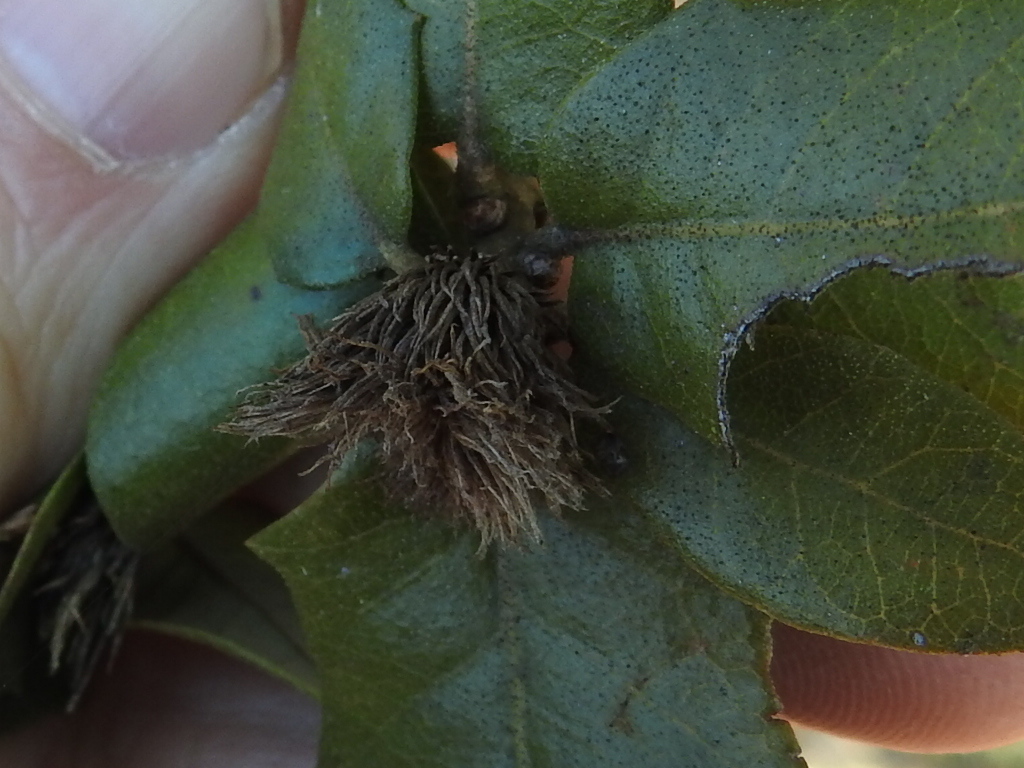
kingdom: Animalia
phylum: Arthropoda
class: Insecta
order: Hymenoptera
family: Cynipidae
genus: Andricus
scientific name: Andricus quercusfoliatus
